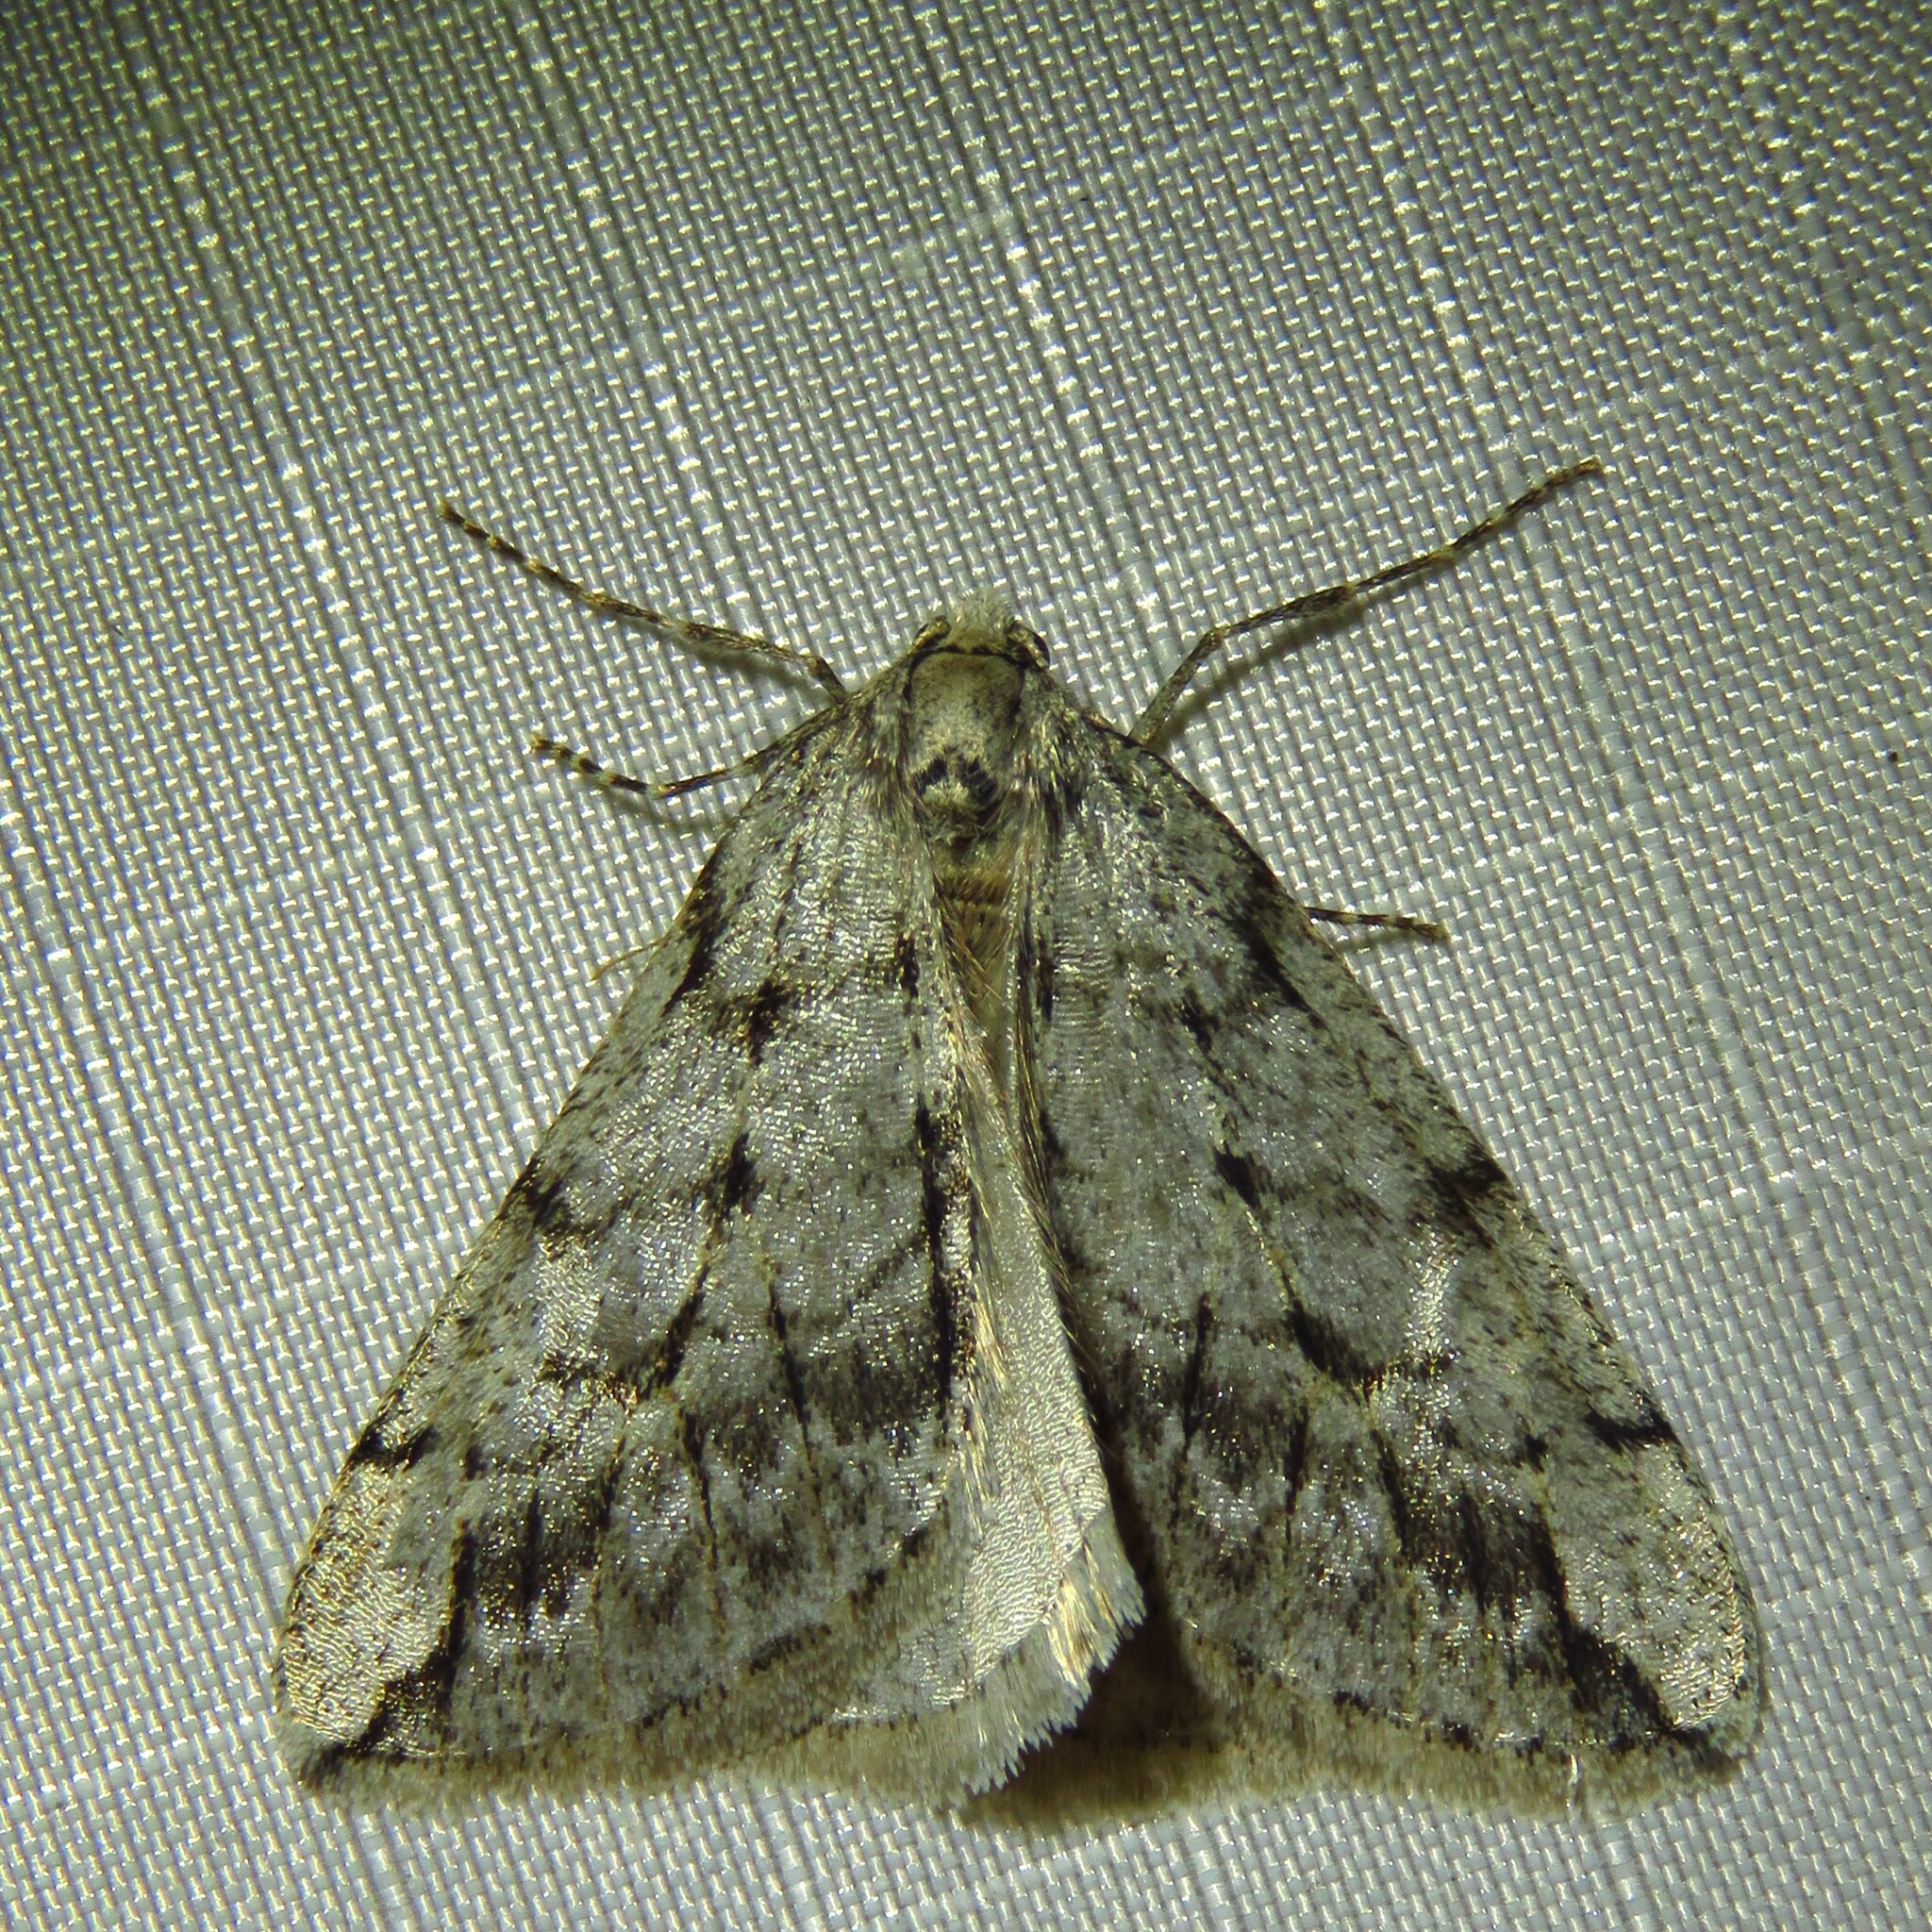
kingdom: Animalia
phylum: Arthropoda
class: Insecta
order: Lepidoptera
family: Geometridae
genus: Paleacrita
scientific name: Paleacrita vernata
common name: Spring cankerworm
